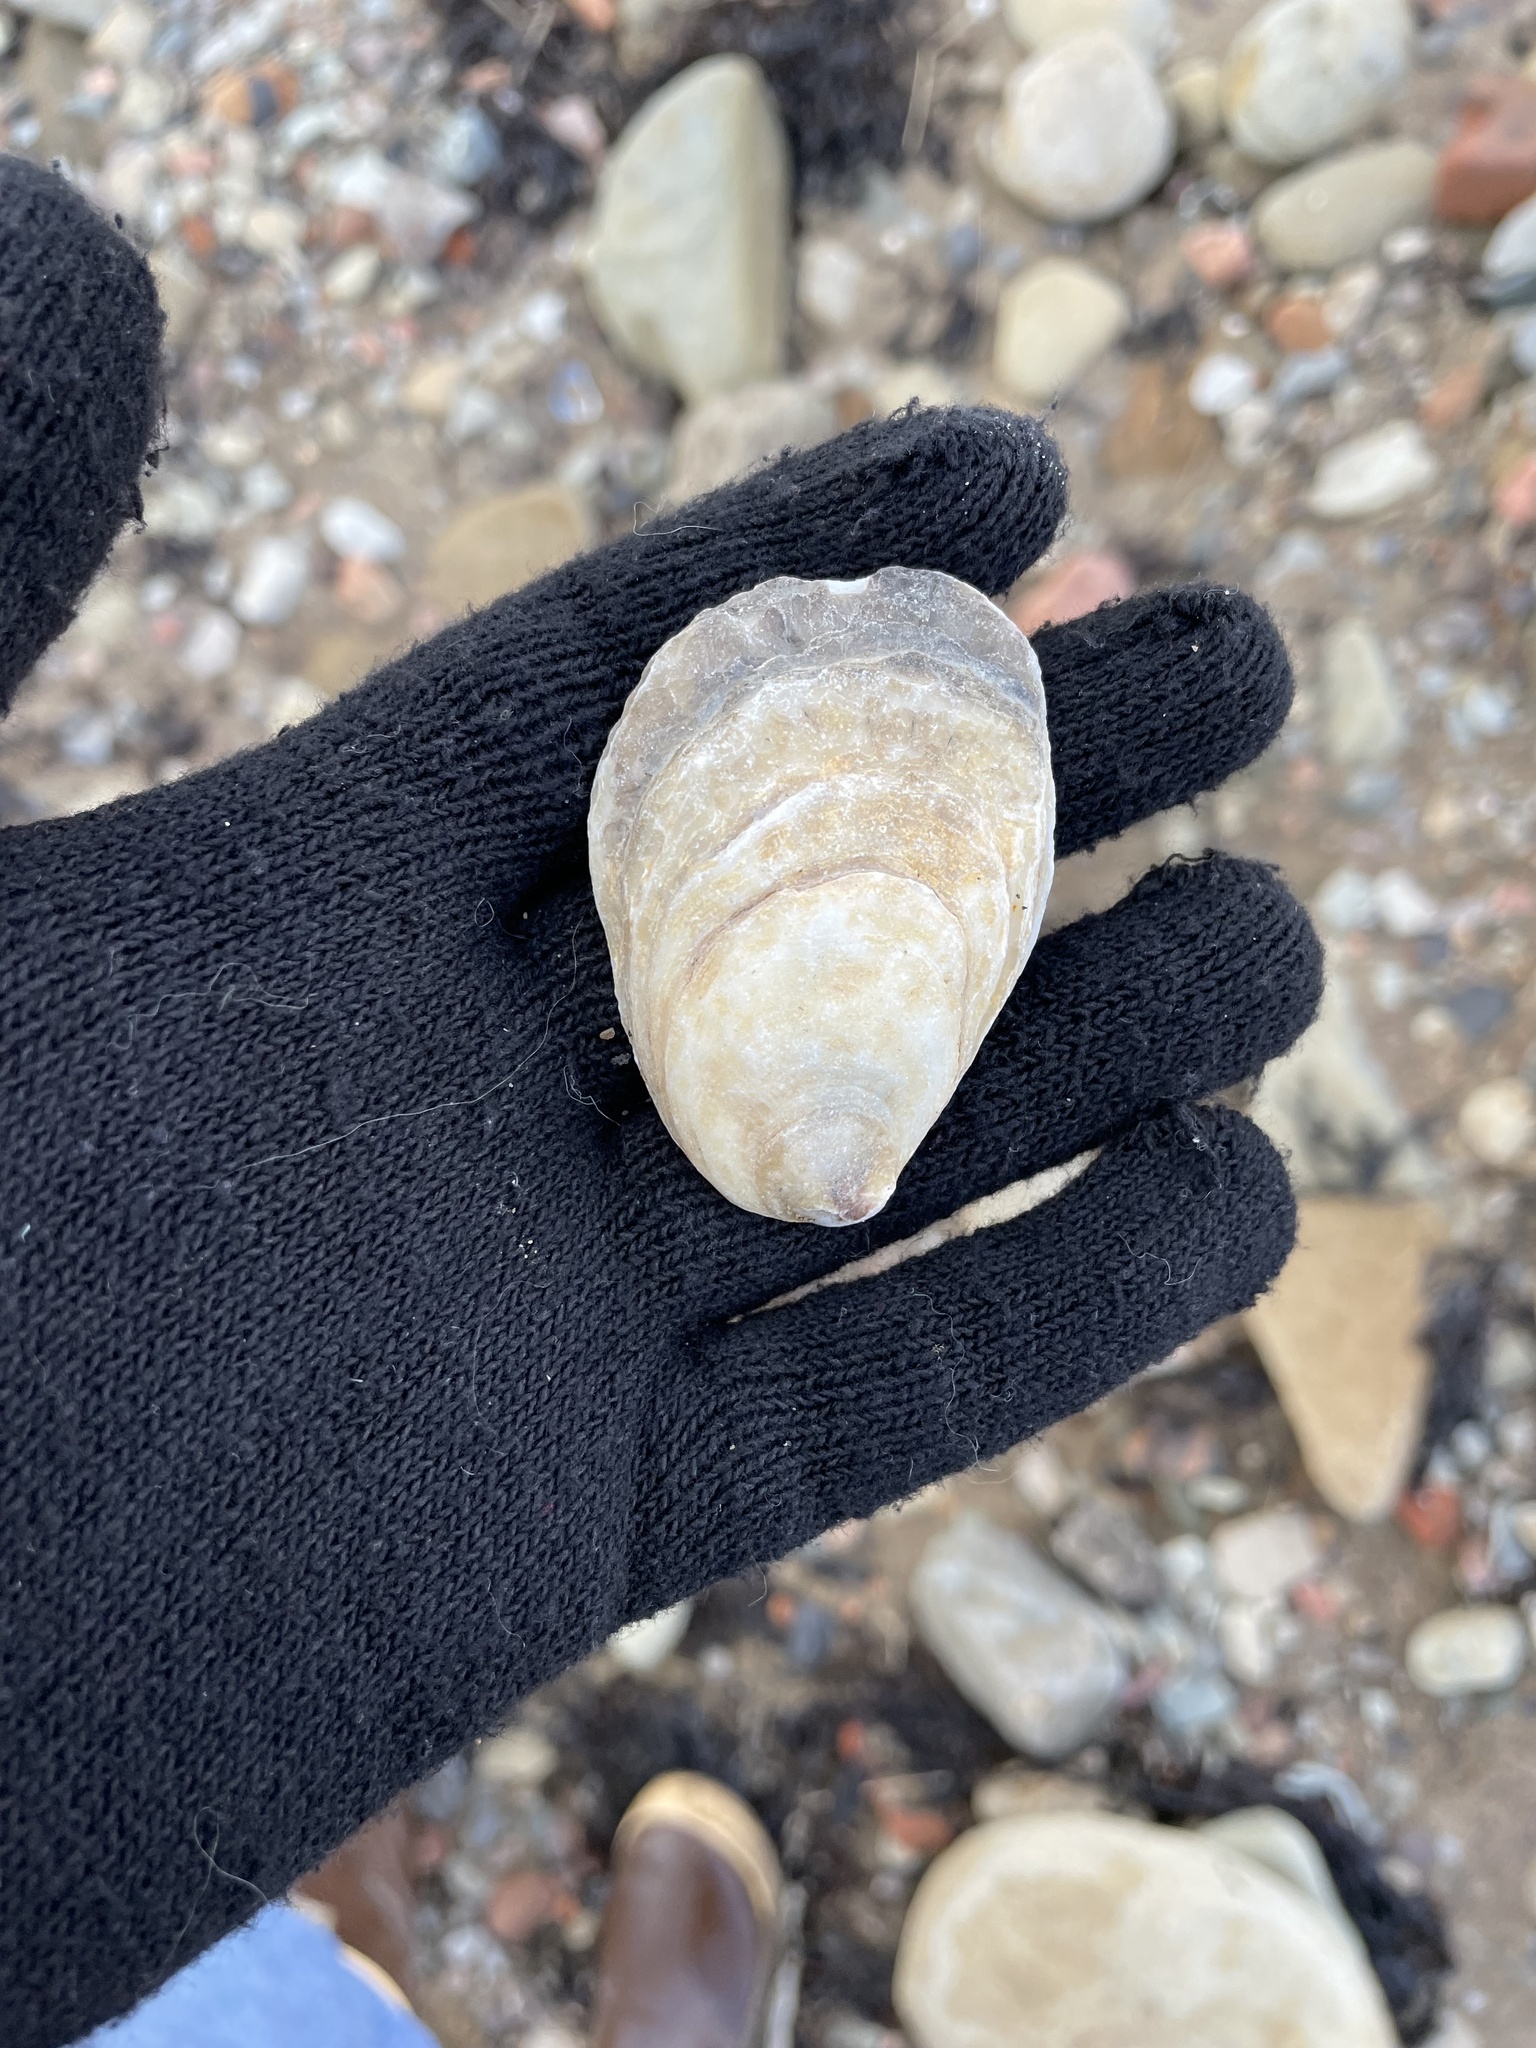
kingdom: Animalia
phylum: Mollusca
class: Bivalvia
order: Ostreida
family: Ostreidae
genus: Crassostrea
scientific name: Crassostrea virginica
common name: American oyster
